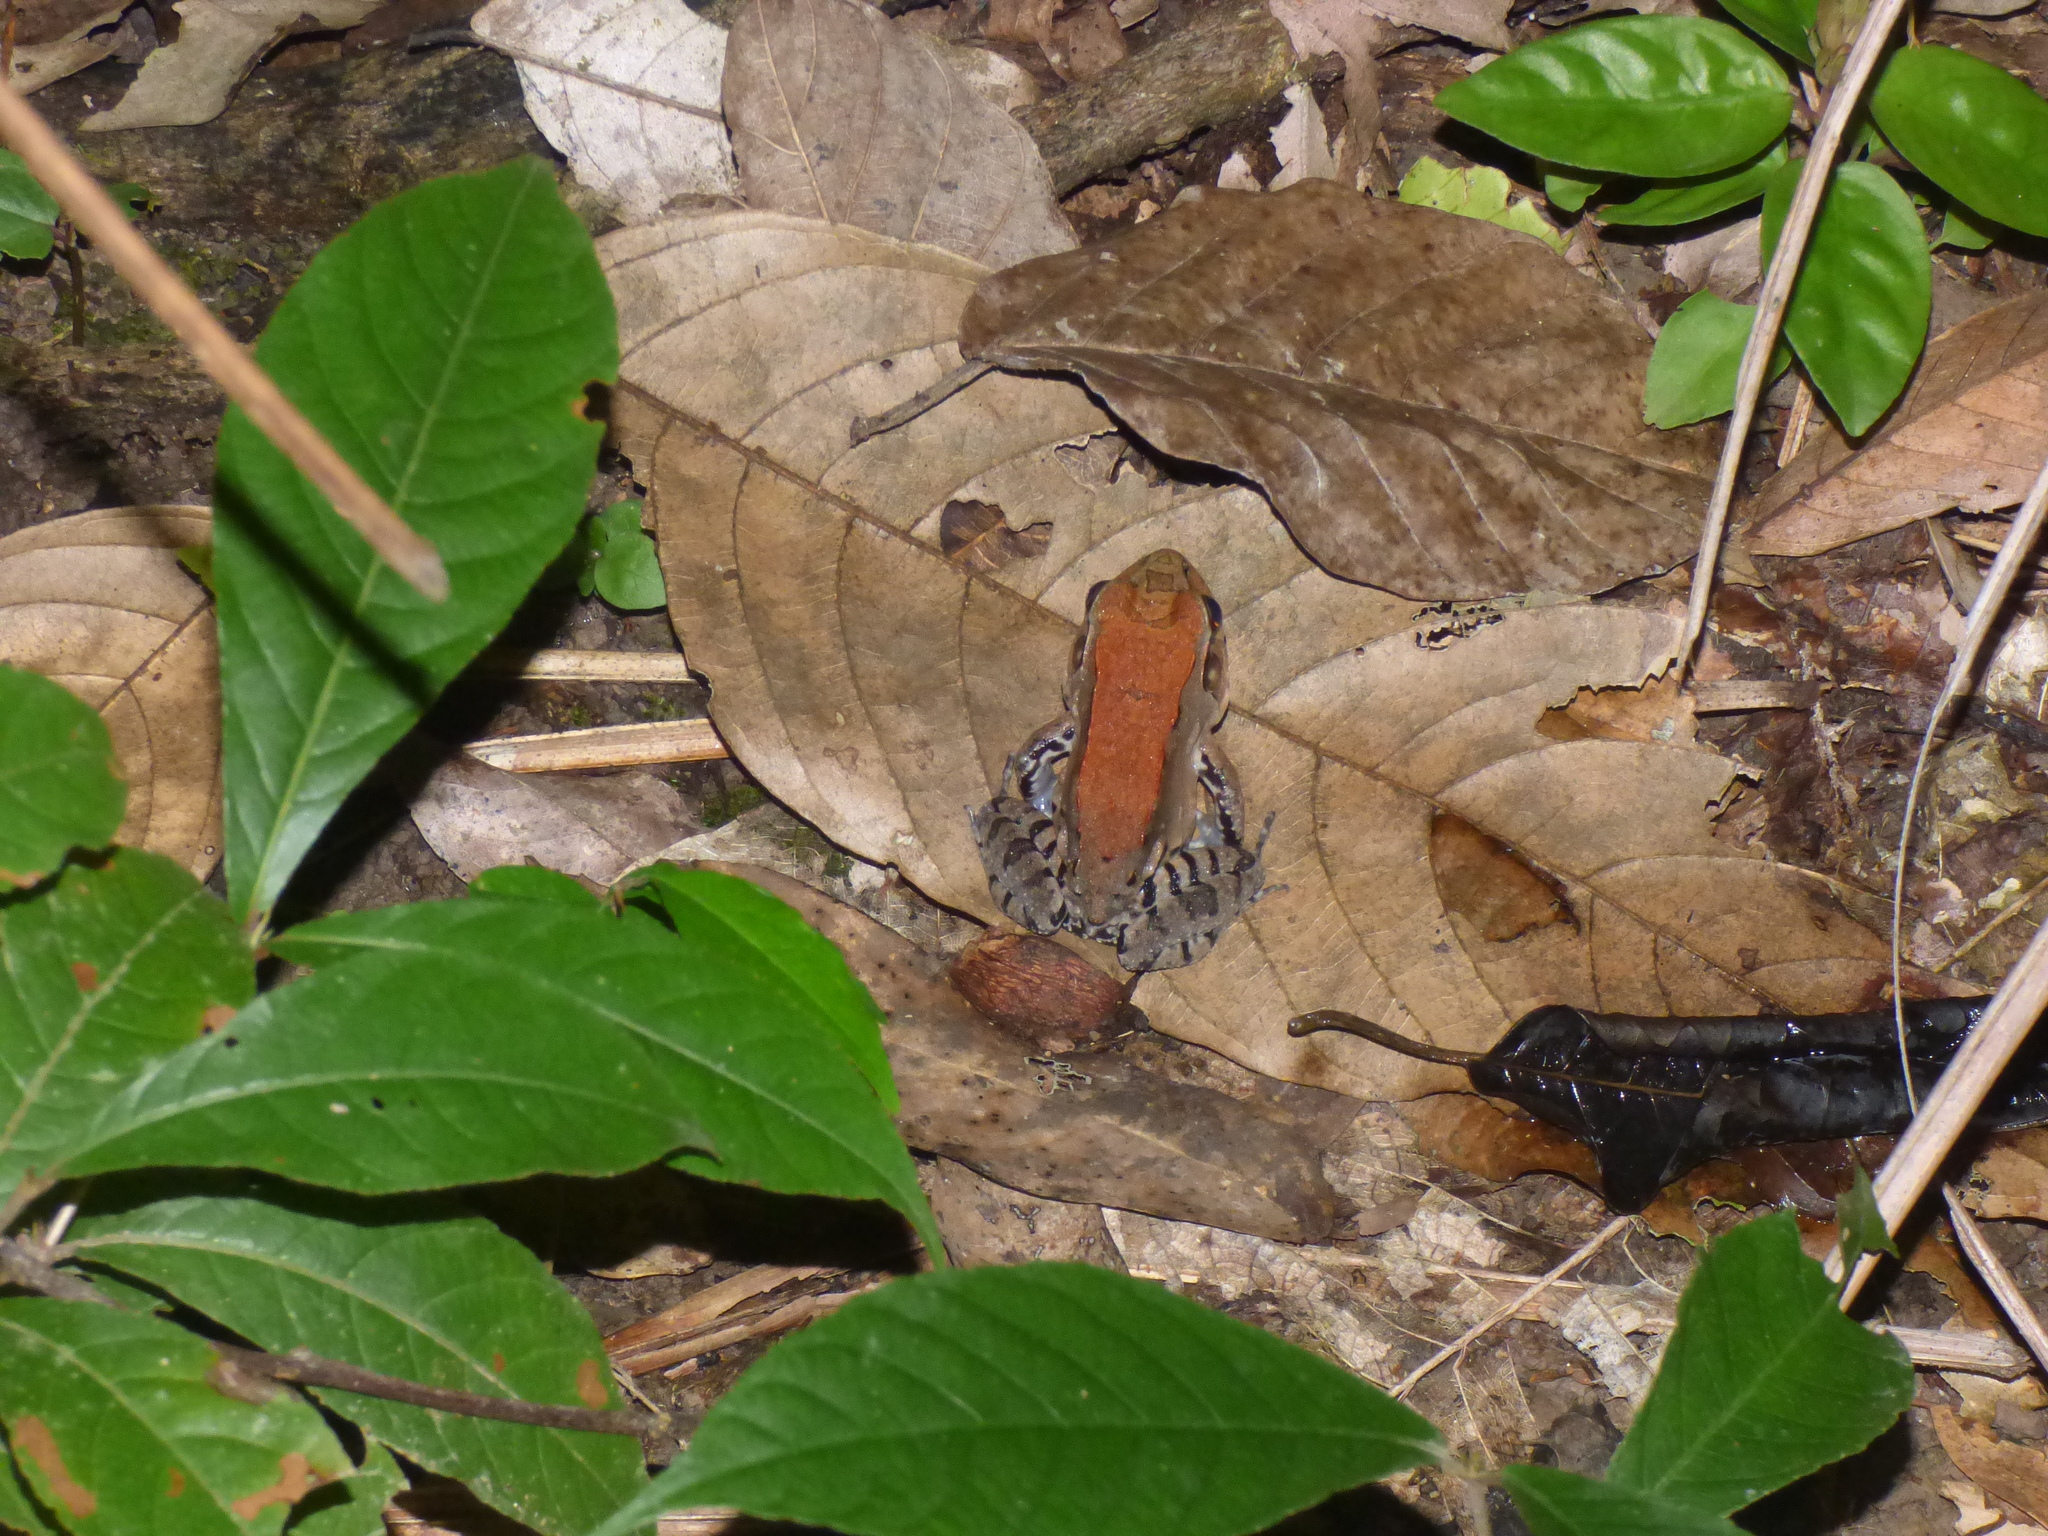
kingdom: Animalia
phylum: Chordata
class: Amphibia
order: Anura
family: Leptodactylidae
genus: Leptodactylus
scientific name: Leptodactylus savagei
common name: Savage's thin-toed frog
